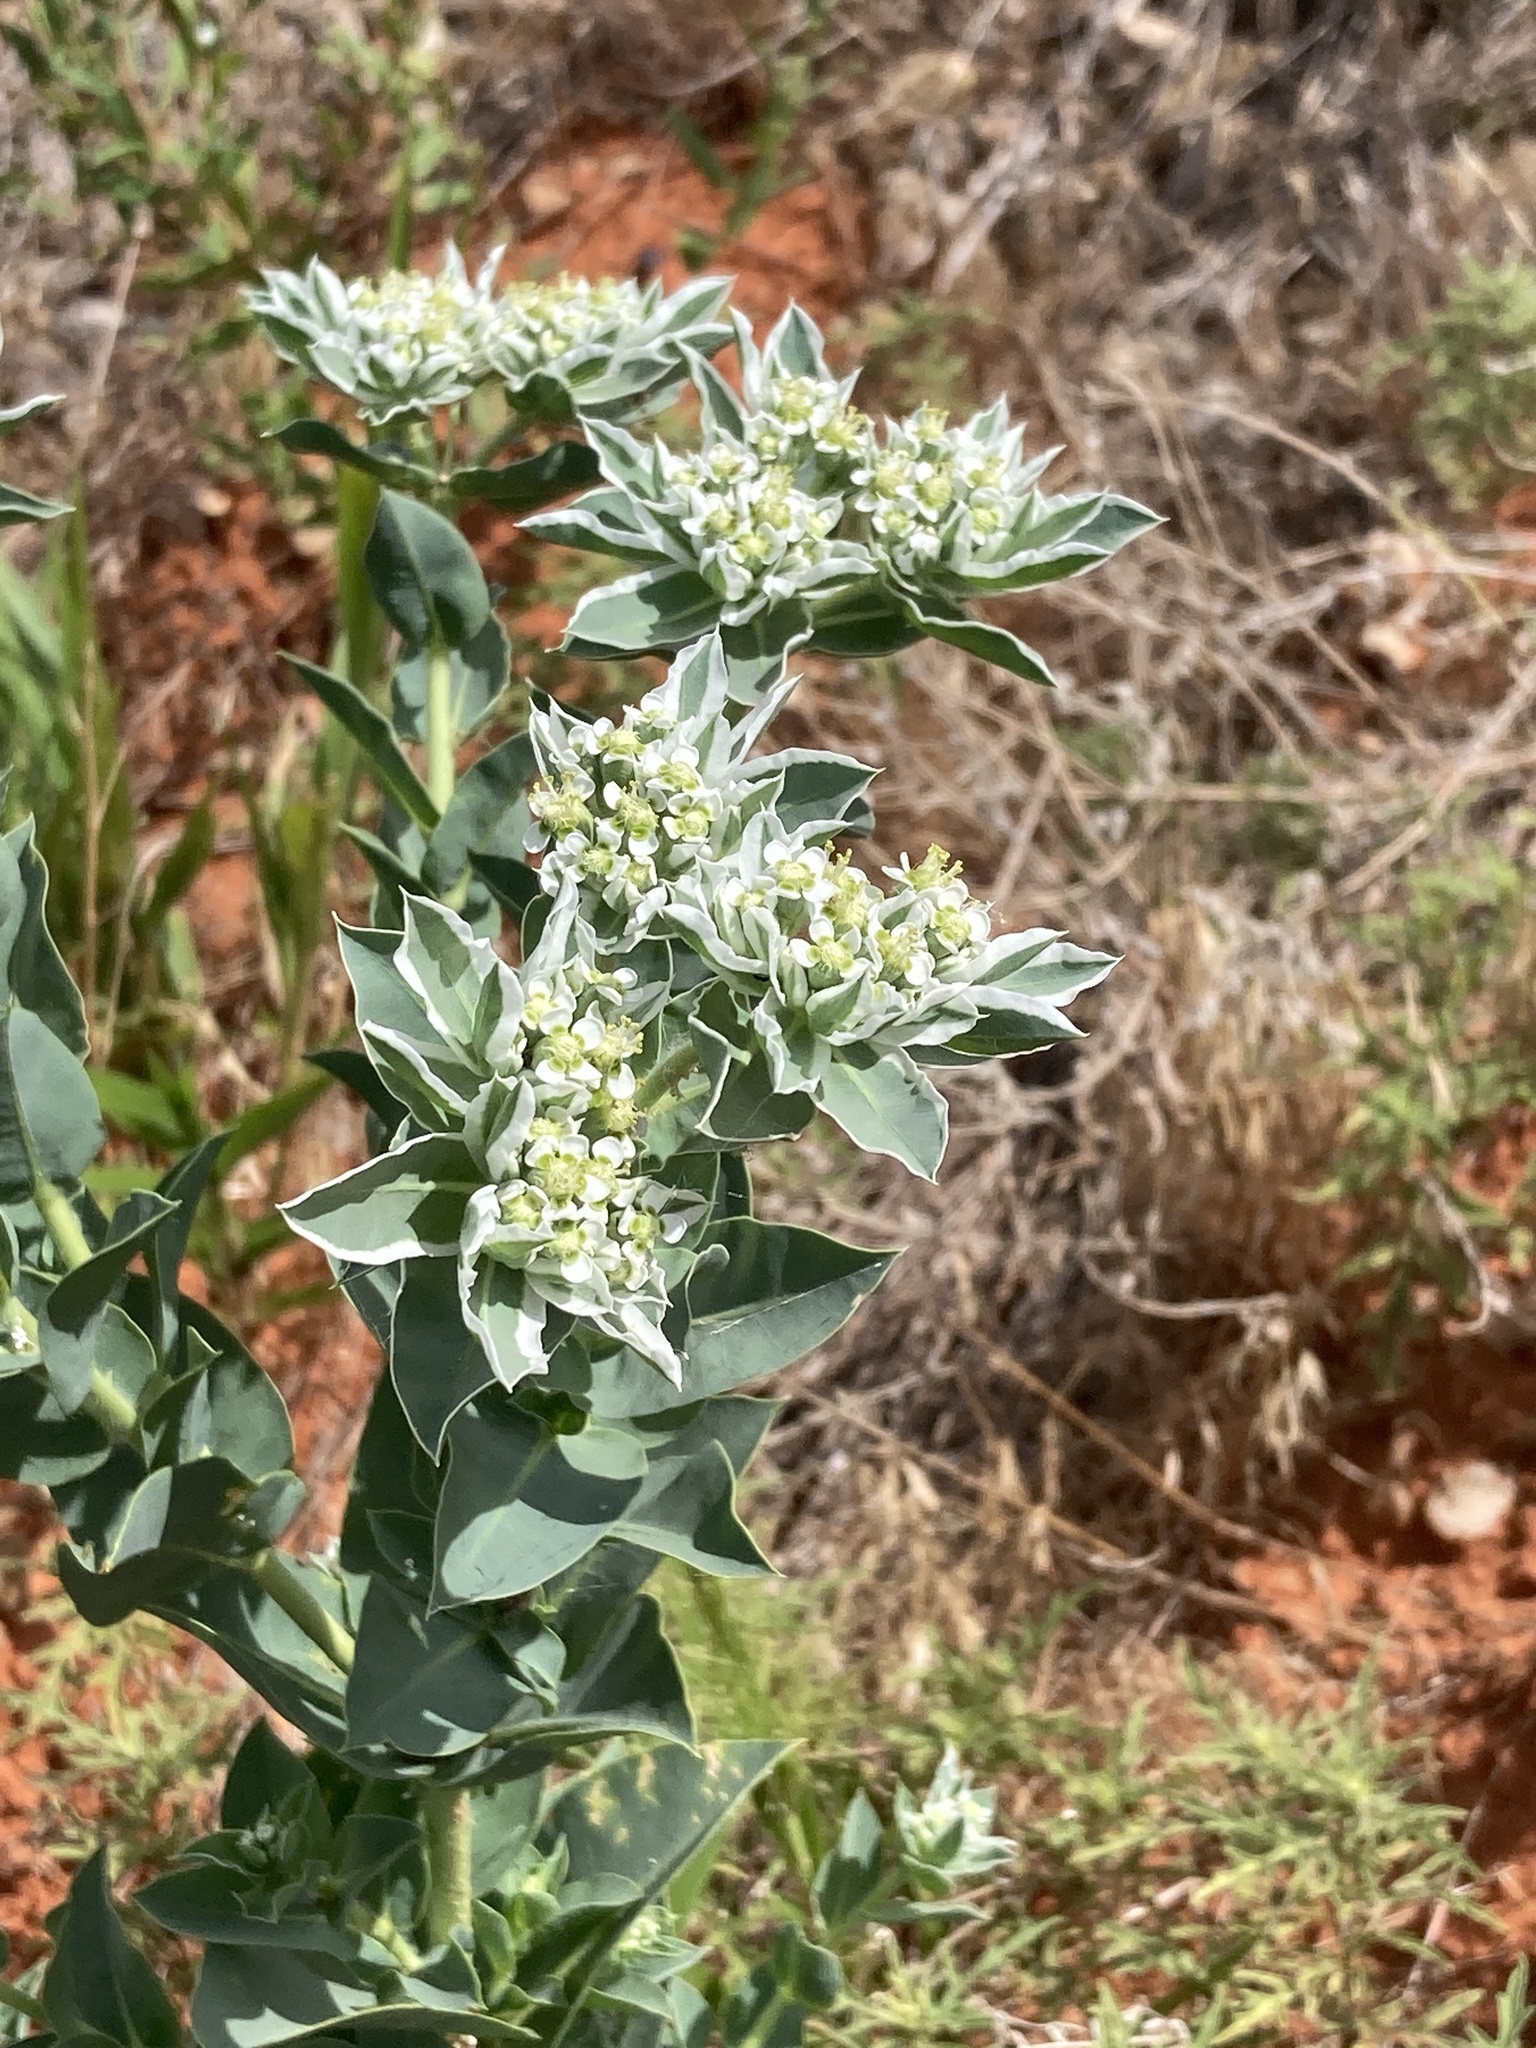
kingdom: Plantae
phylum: Tracheophyta
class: Magnoliopsida
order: Malpighiales
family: Euphorbiaceae
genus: Euphorbia
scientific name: Euphorbia marginata
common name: Ghostweed
